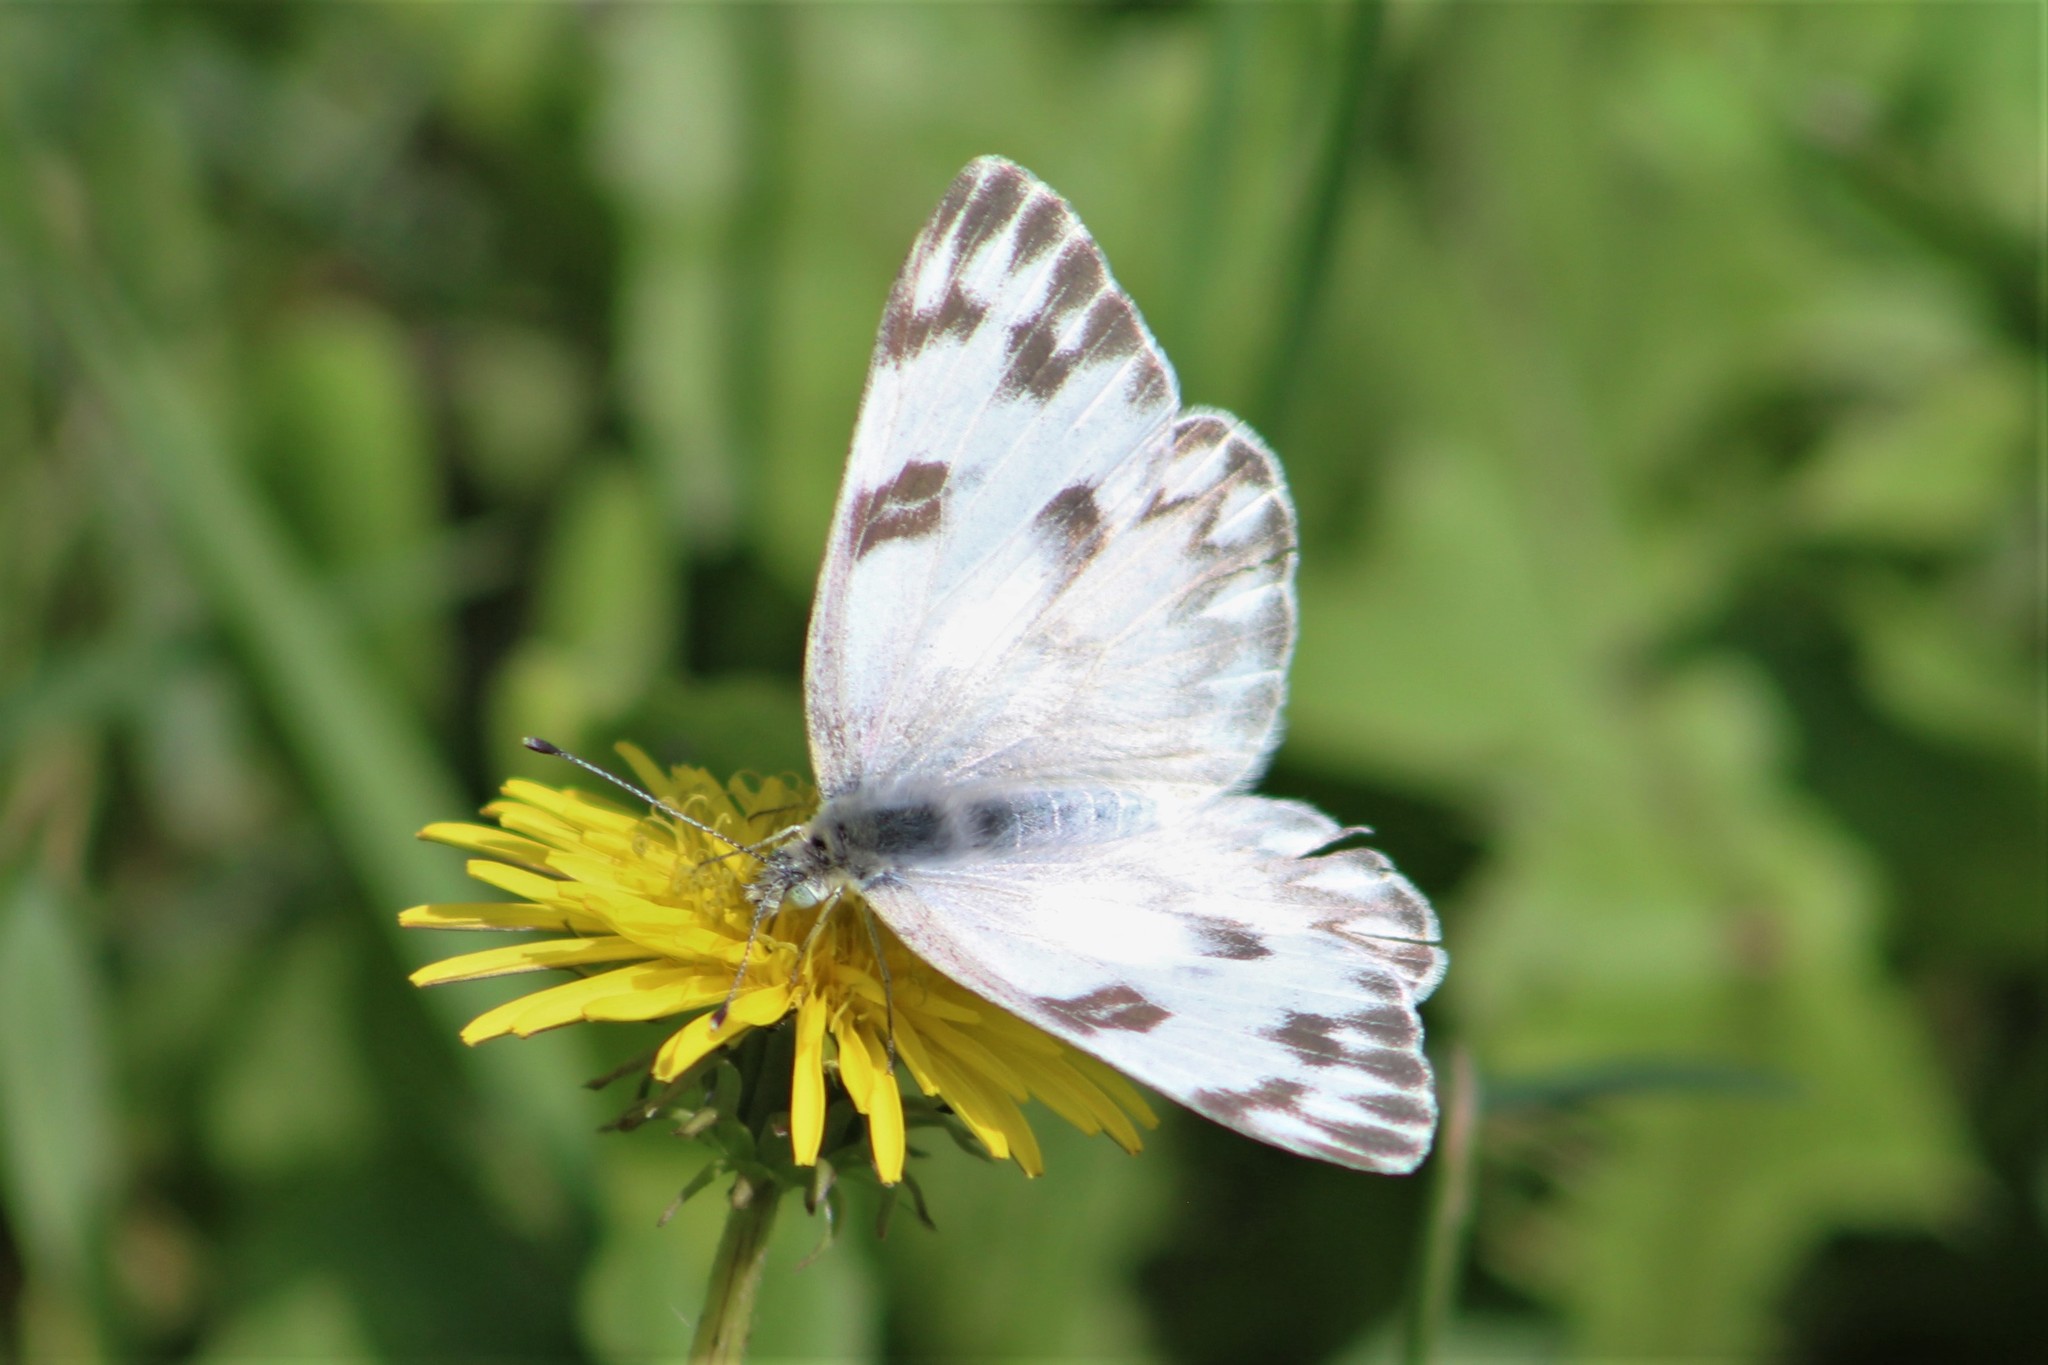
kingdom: Animalia
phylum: Arthropoda
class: Insecta
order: Lepidoptera
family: Pieridae
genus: Pontia
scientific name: Pontia protodice
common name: Checkered white
